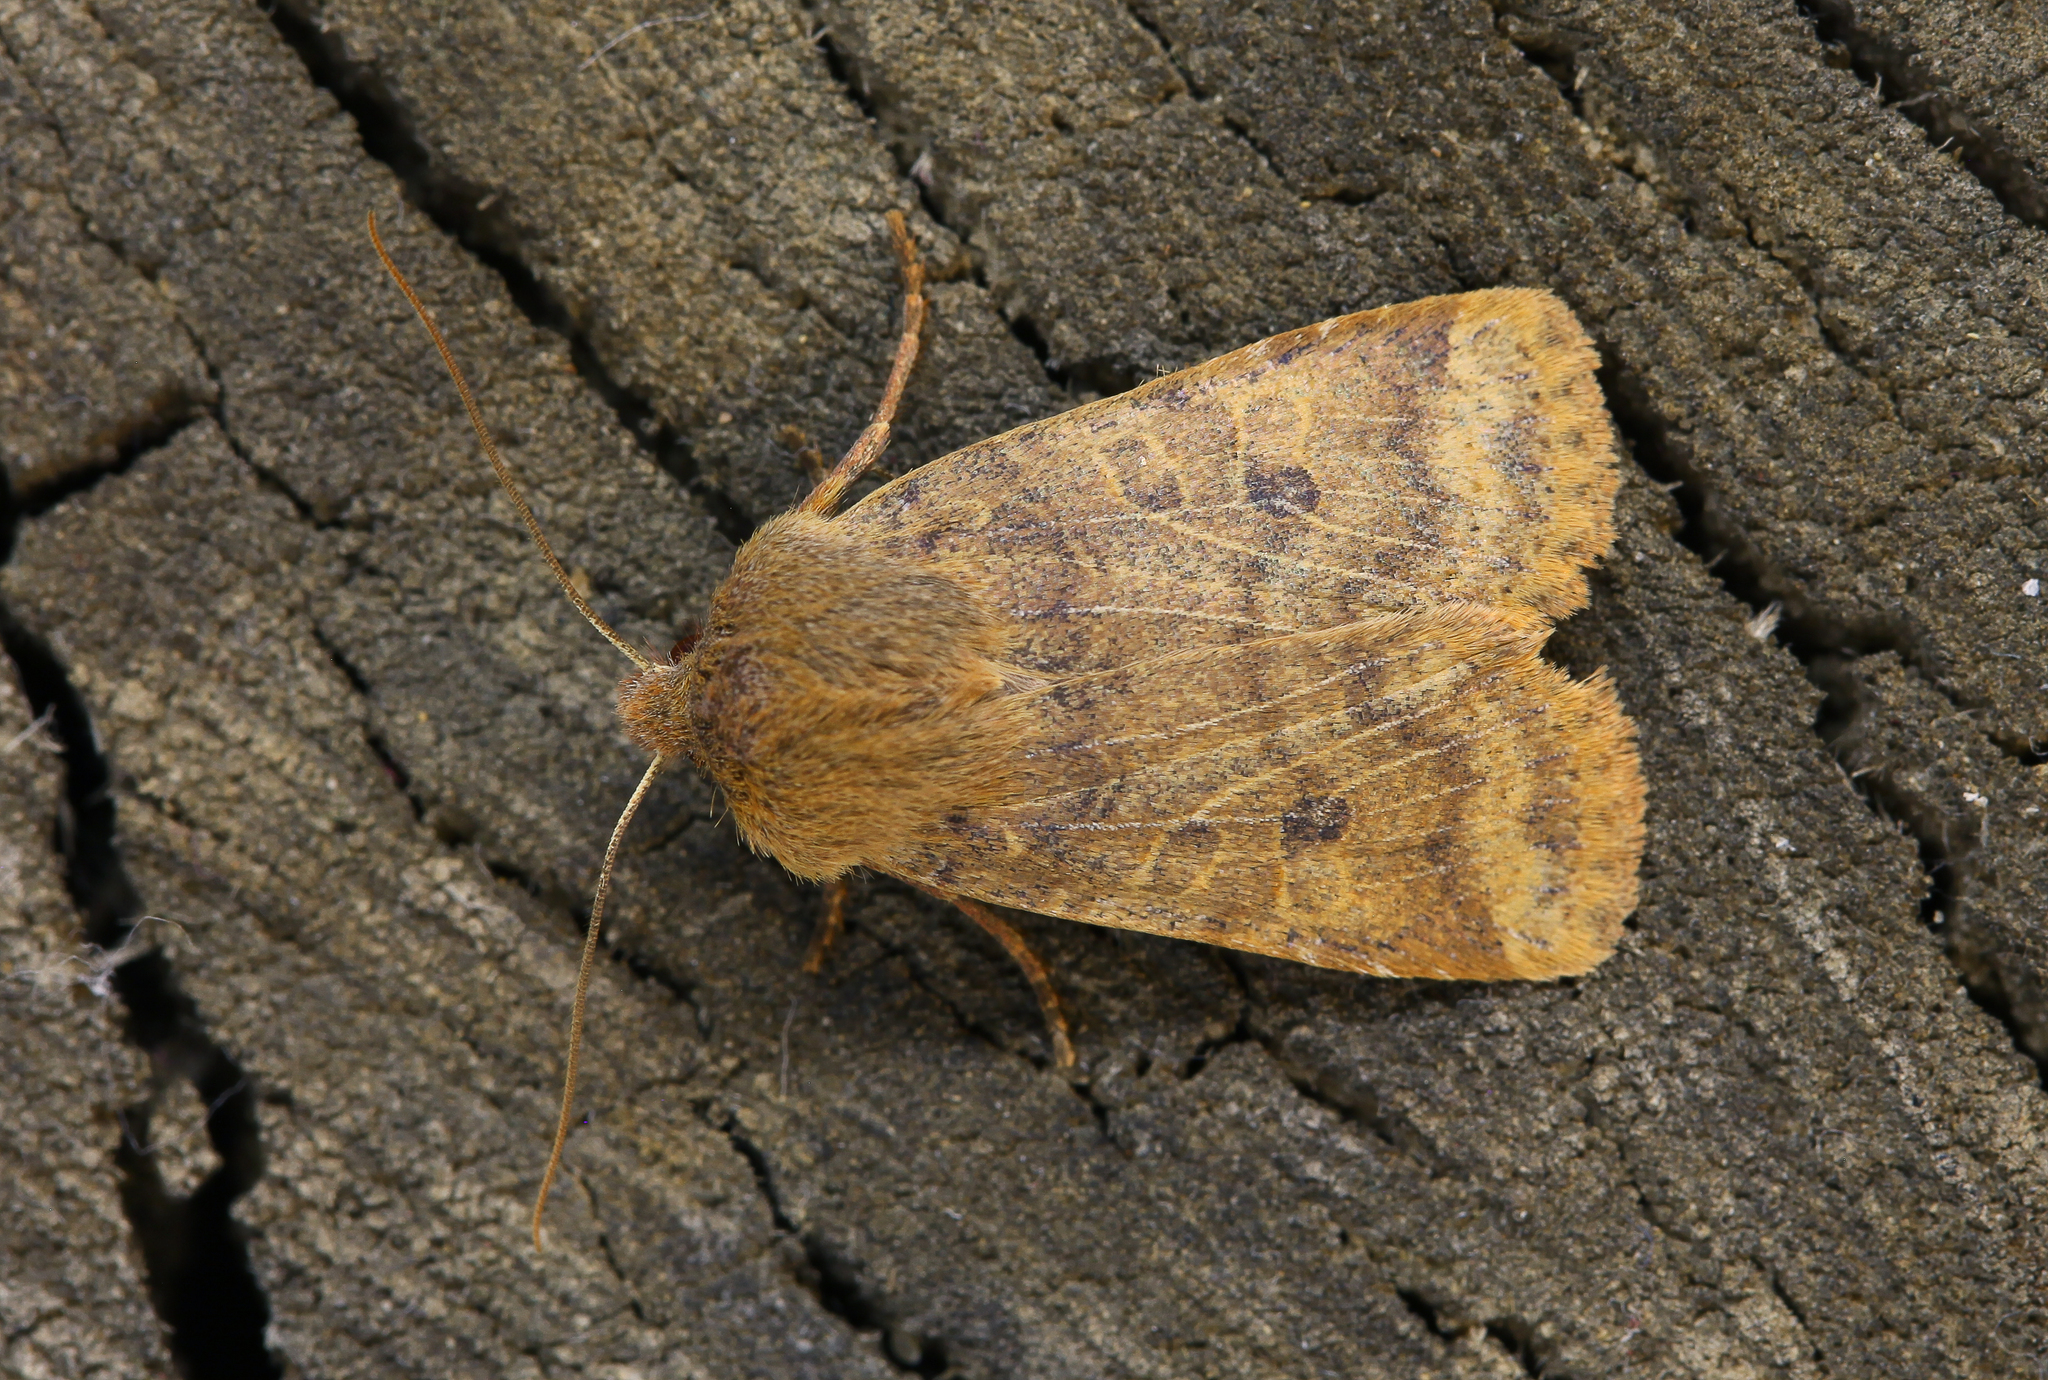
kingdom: Animalia
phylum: Arthropoda
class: Insecta
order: Lepidoptera
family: Noctuidae
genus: Conistra
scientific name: Conistra vaccinii
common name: Chestnut
